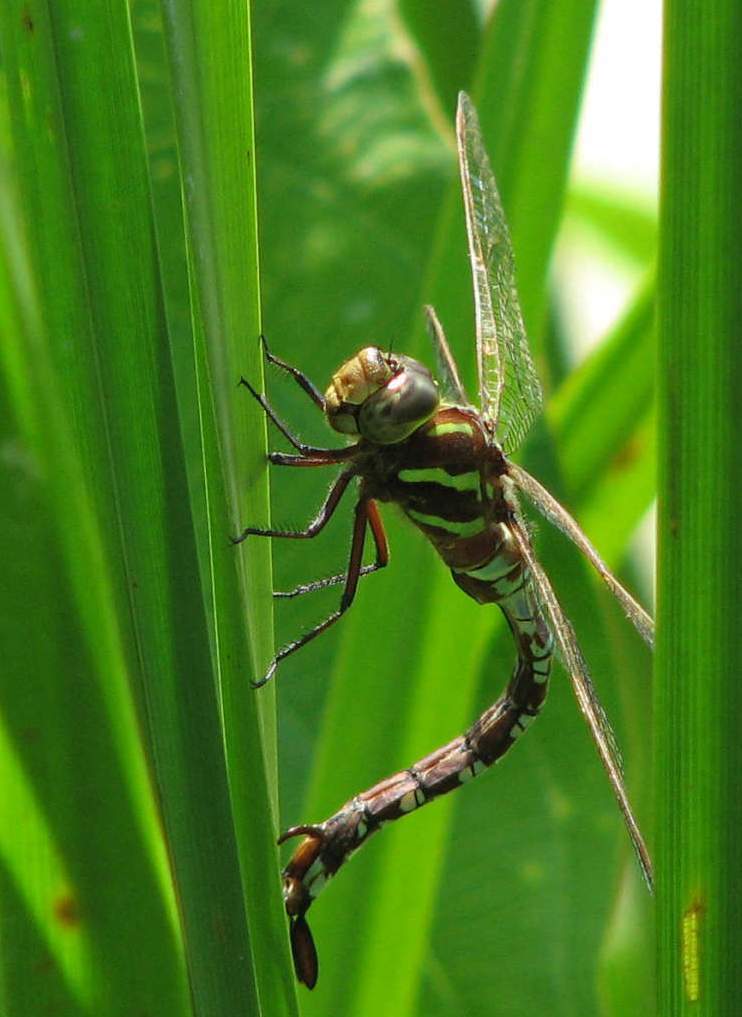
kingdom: Animalia
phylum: Arthropoda
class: Insecta
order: Odonata
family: Aeshnidae
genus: Aeshna
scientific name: Aeshna constricta
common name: Lance-tipped darner
